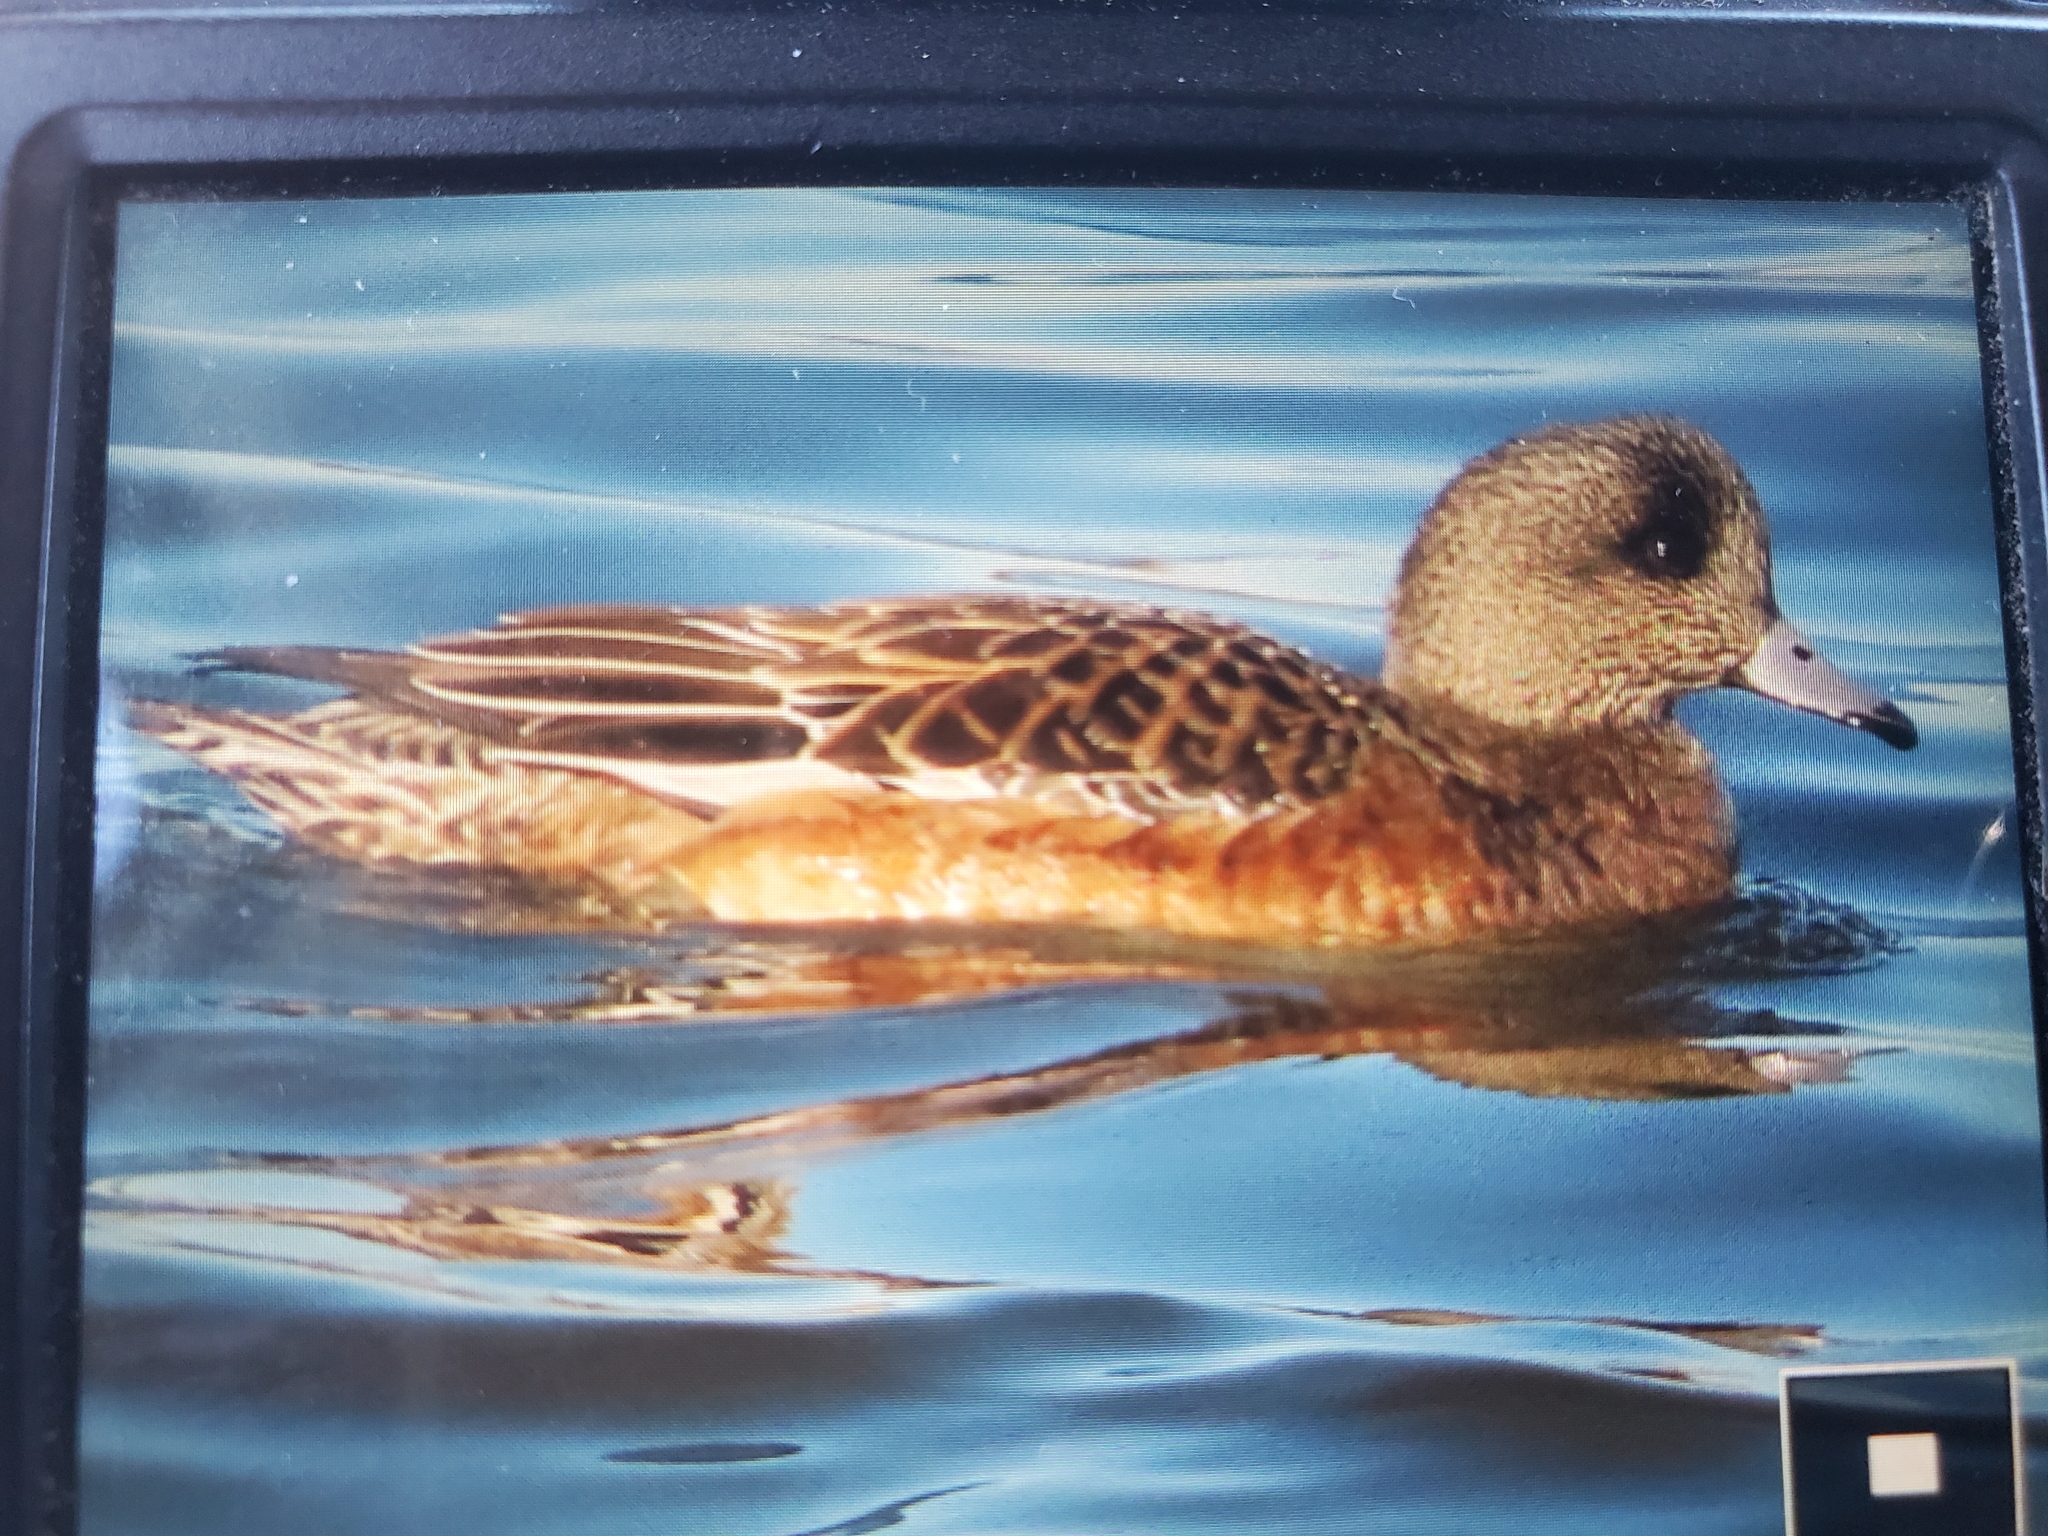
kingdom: Animalia
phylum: Chordata
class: Aves
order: Anseriformes
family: Anatidae
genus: Mareca
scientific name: Mareca americana
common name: American wigeon
